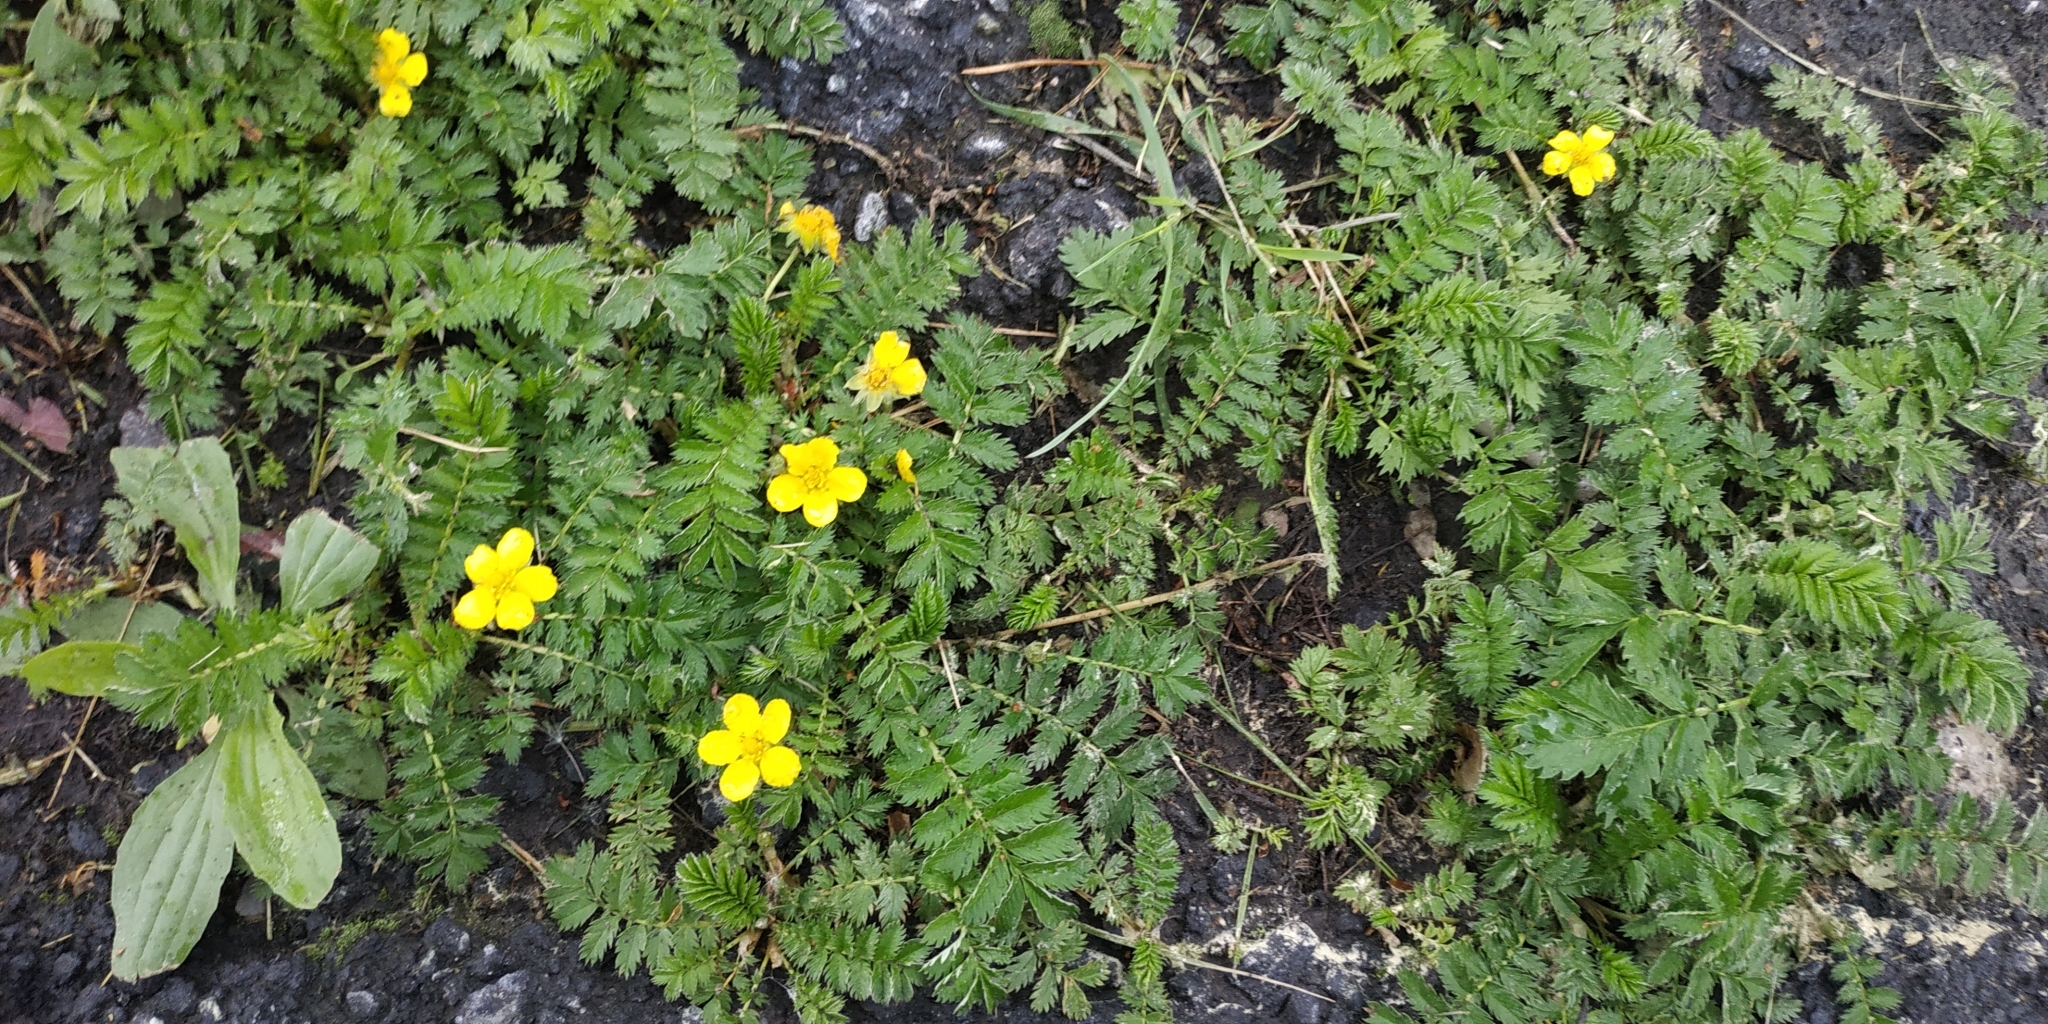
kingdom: Plantae
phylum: Tracheophyta
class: Magnoliopsida
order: Rosales
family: Rosaceae
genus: Argentina
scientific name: Argentina anserina
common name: Common silverweed
